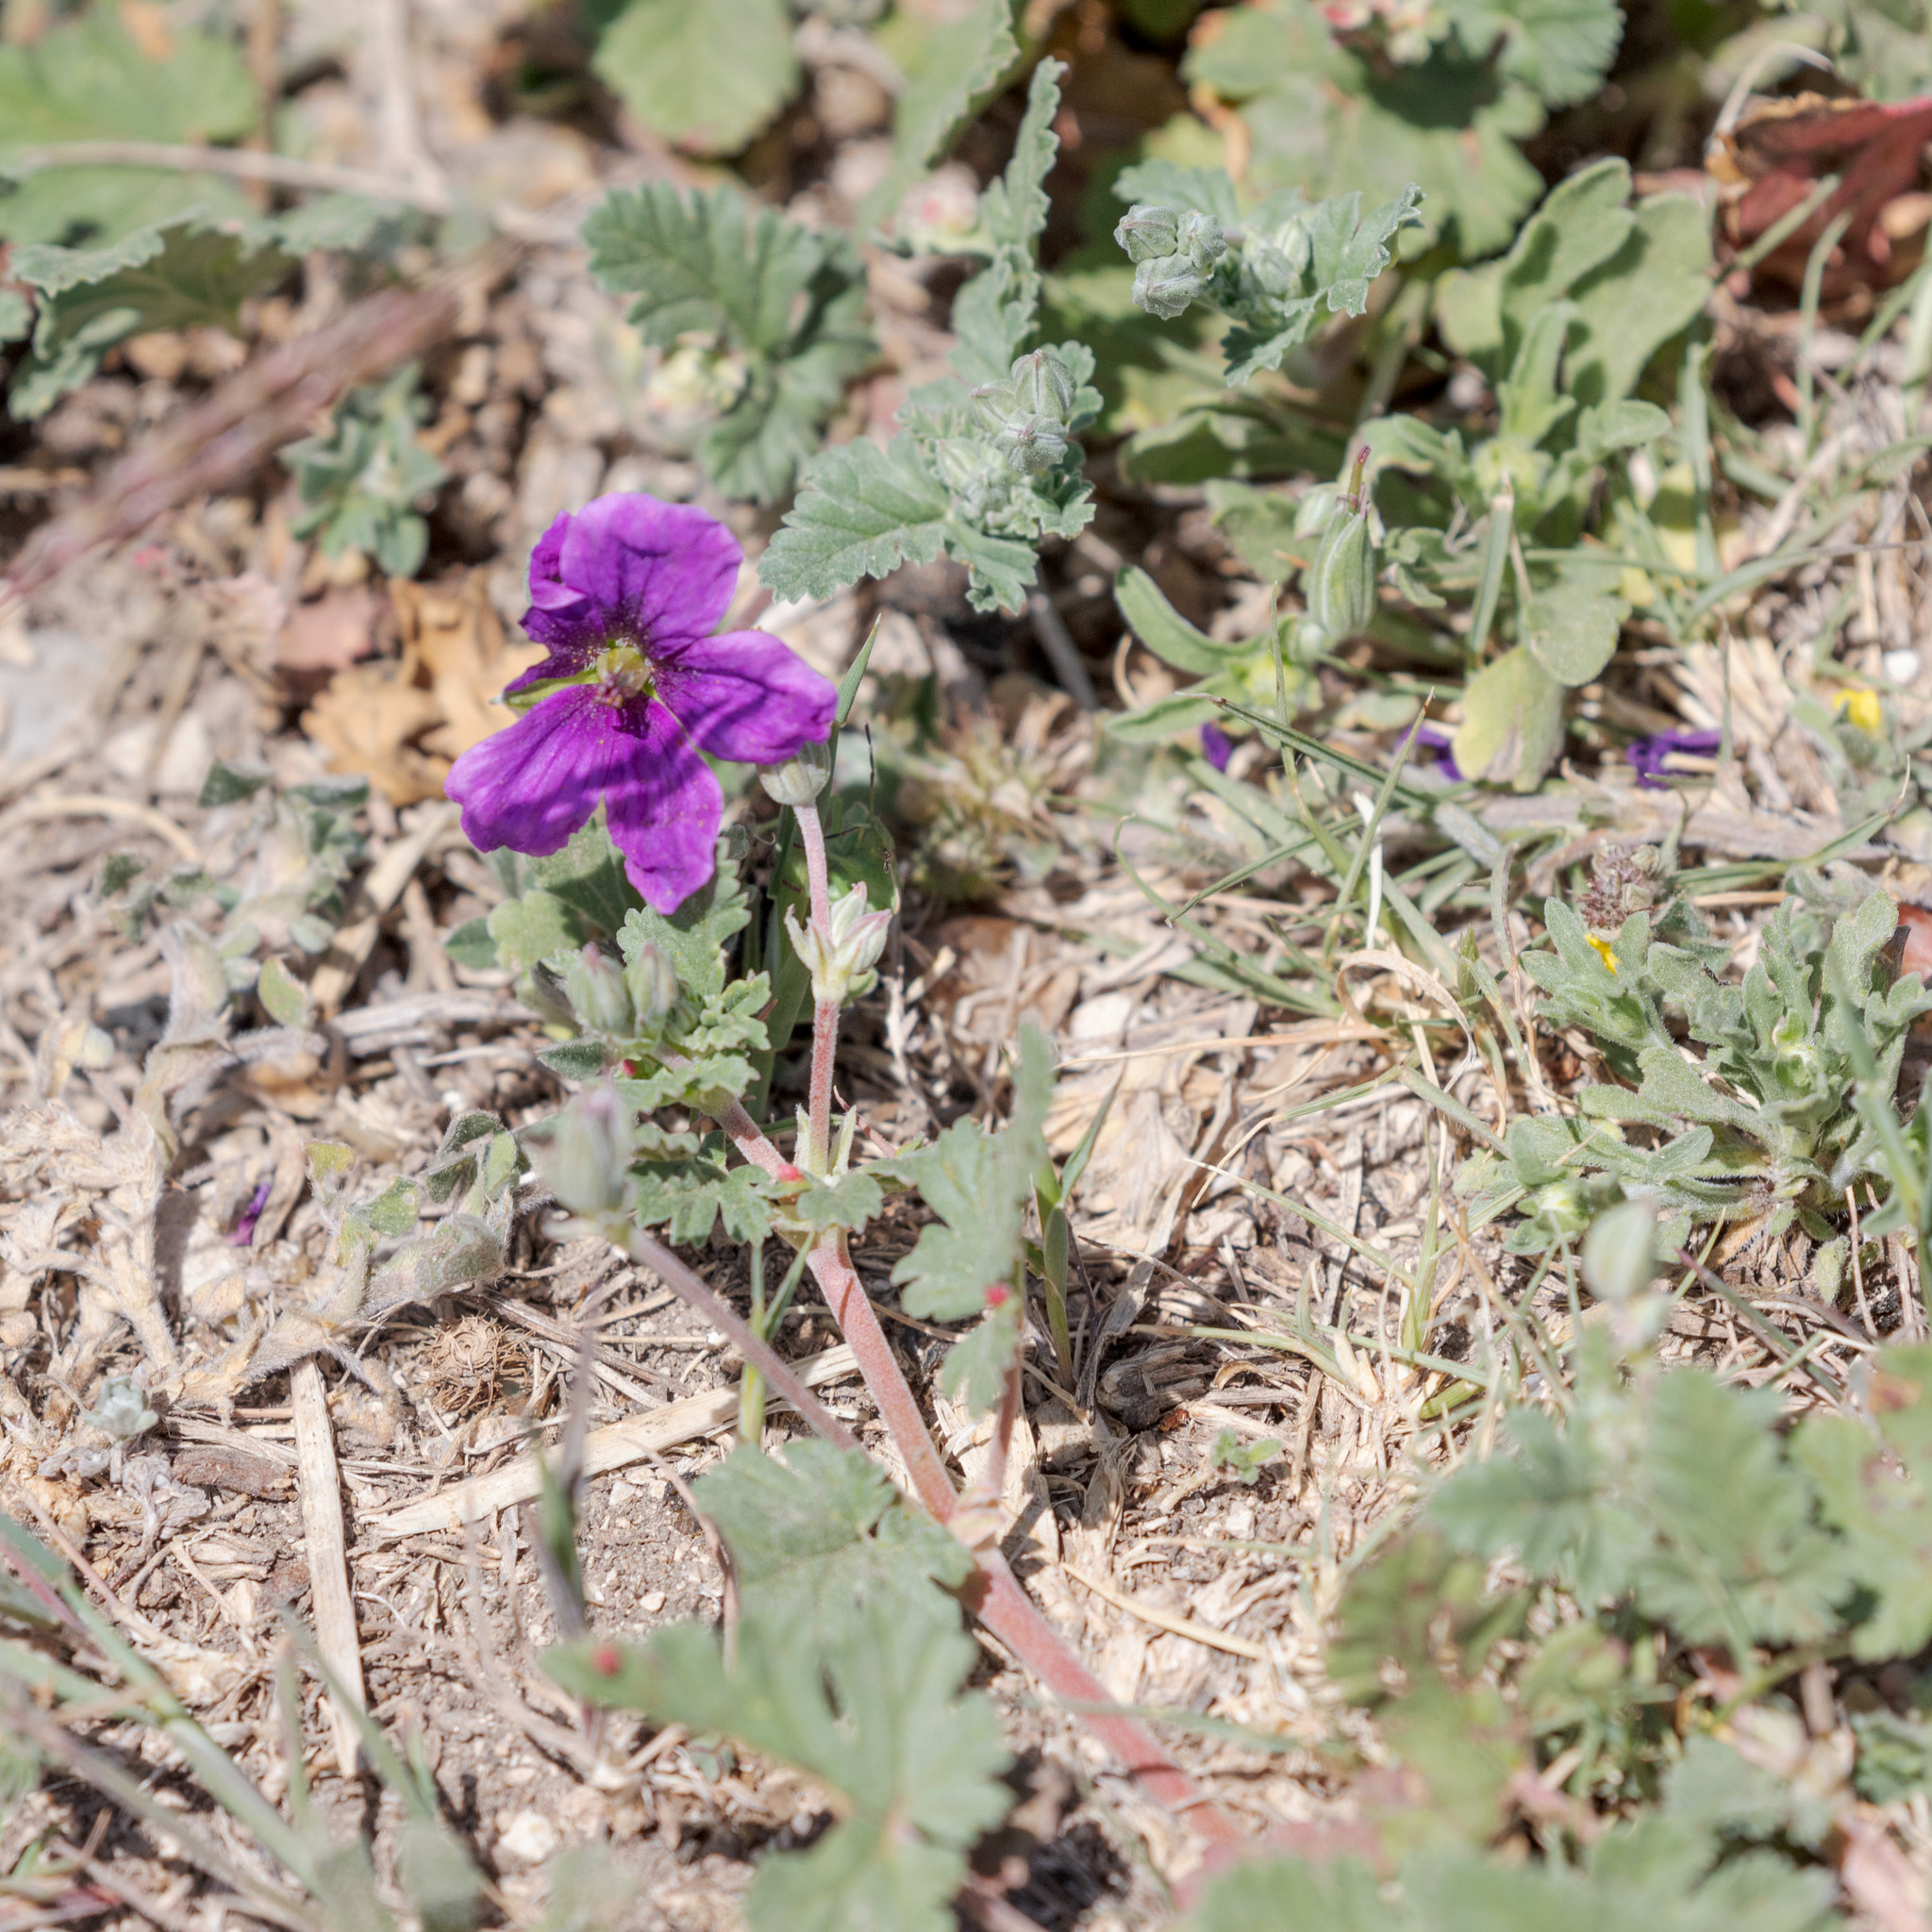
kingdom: Plantae
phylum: Tracheophyta
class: Magnoliopsida
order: Geraniales
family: Geraniaceae
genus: Erodium
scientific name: Erodium texanum
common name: Texas stork's-bill
